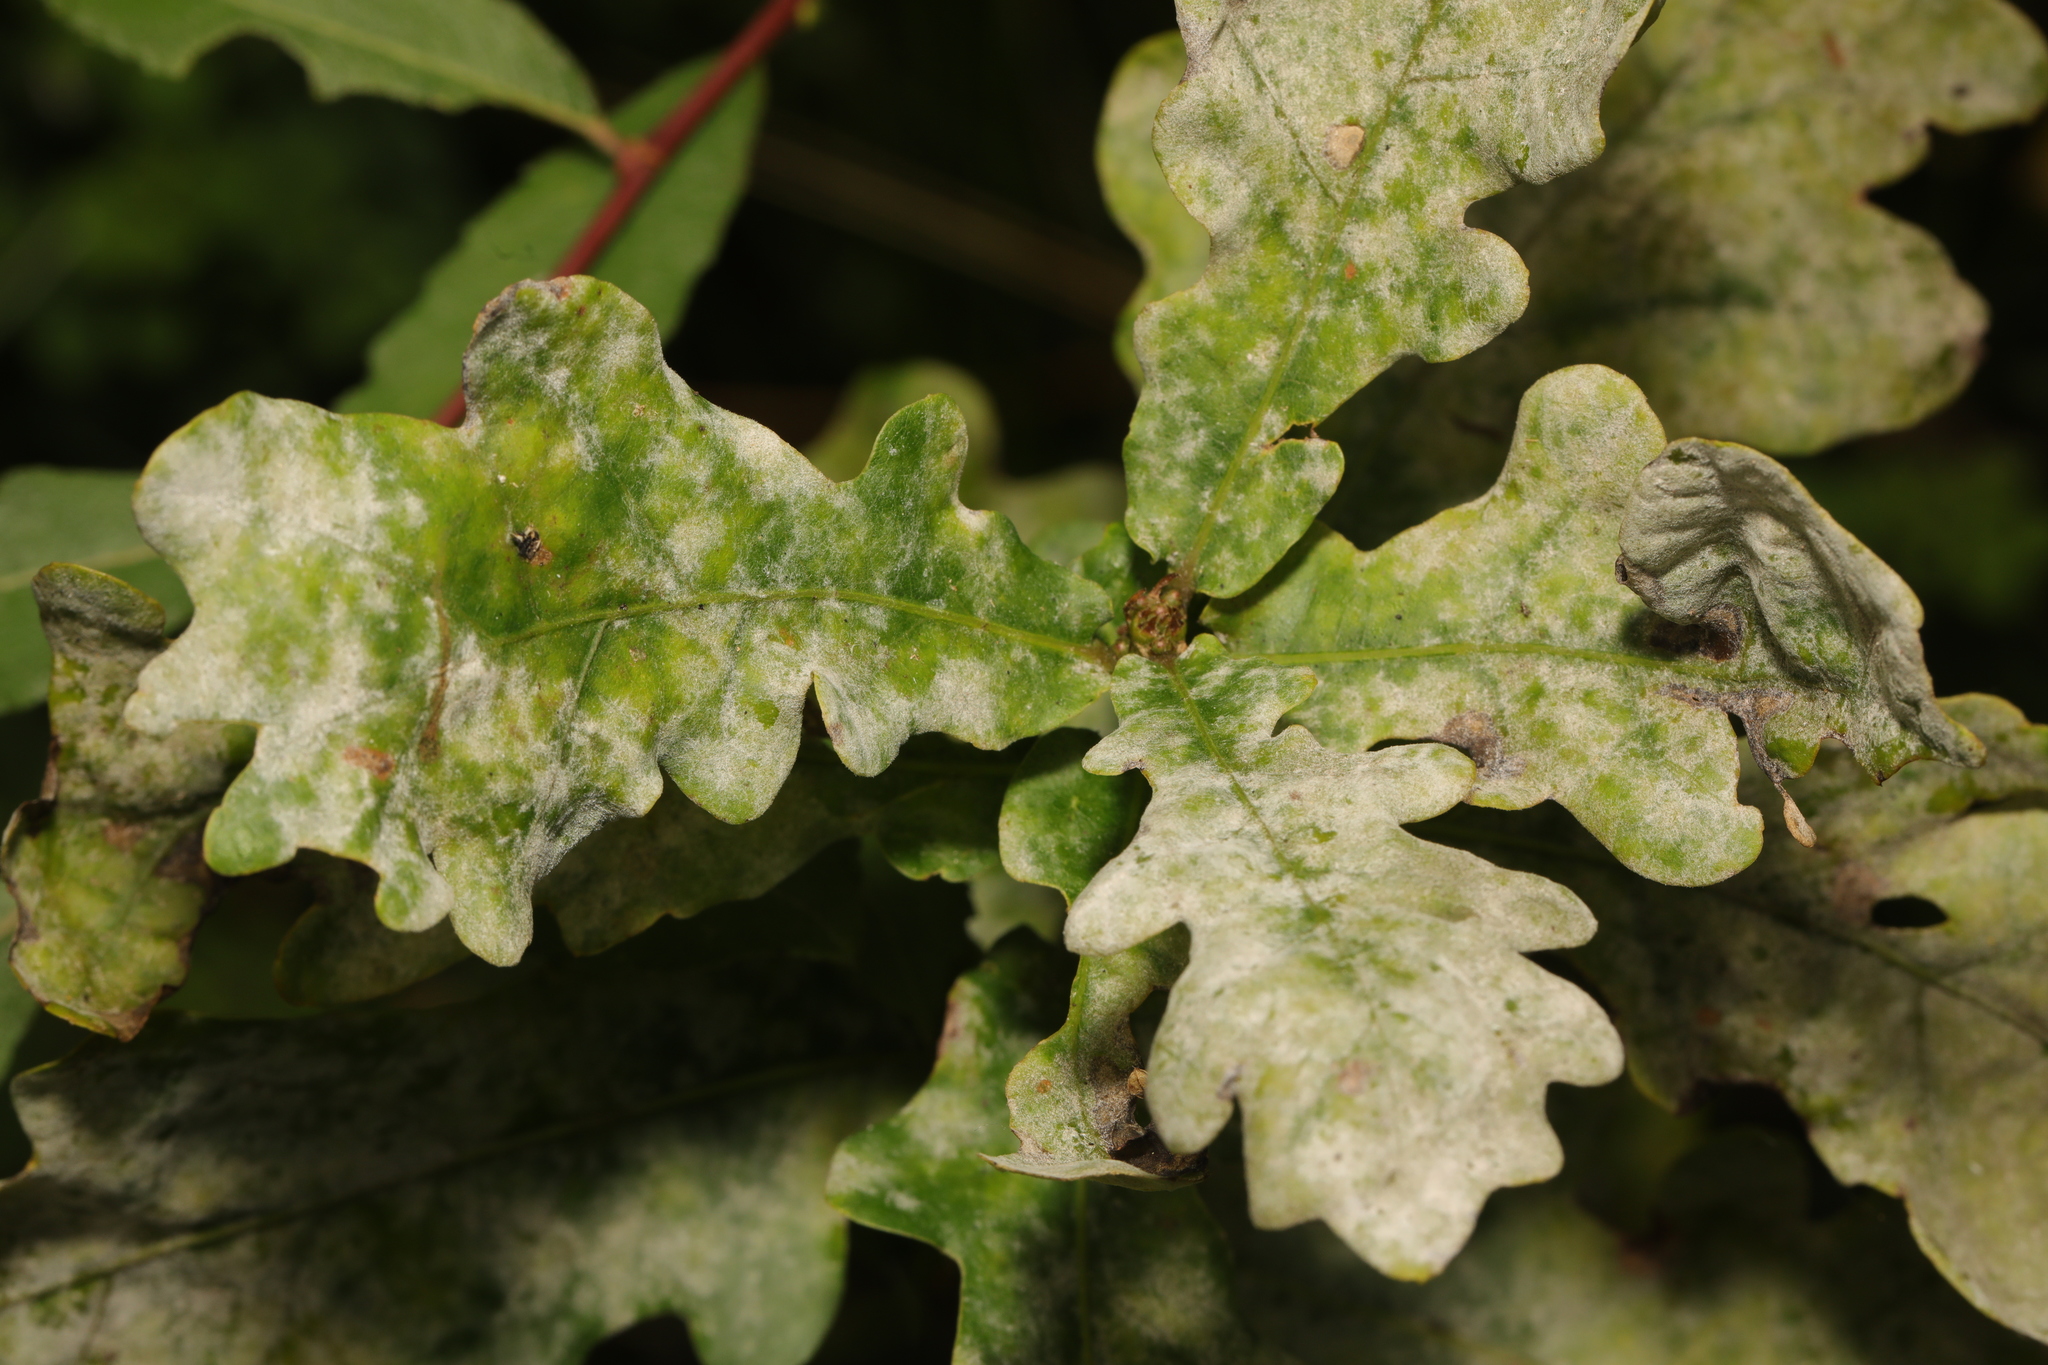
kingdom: Fungi
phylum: Ascomycota
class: Leotiomycetes
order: Helotiales
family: Erysiphaceae
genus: Erysiphe
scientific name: Erysiphe alphitoides
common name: Oak mildew
